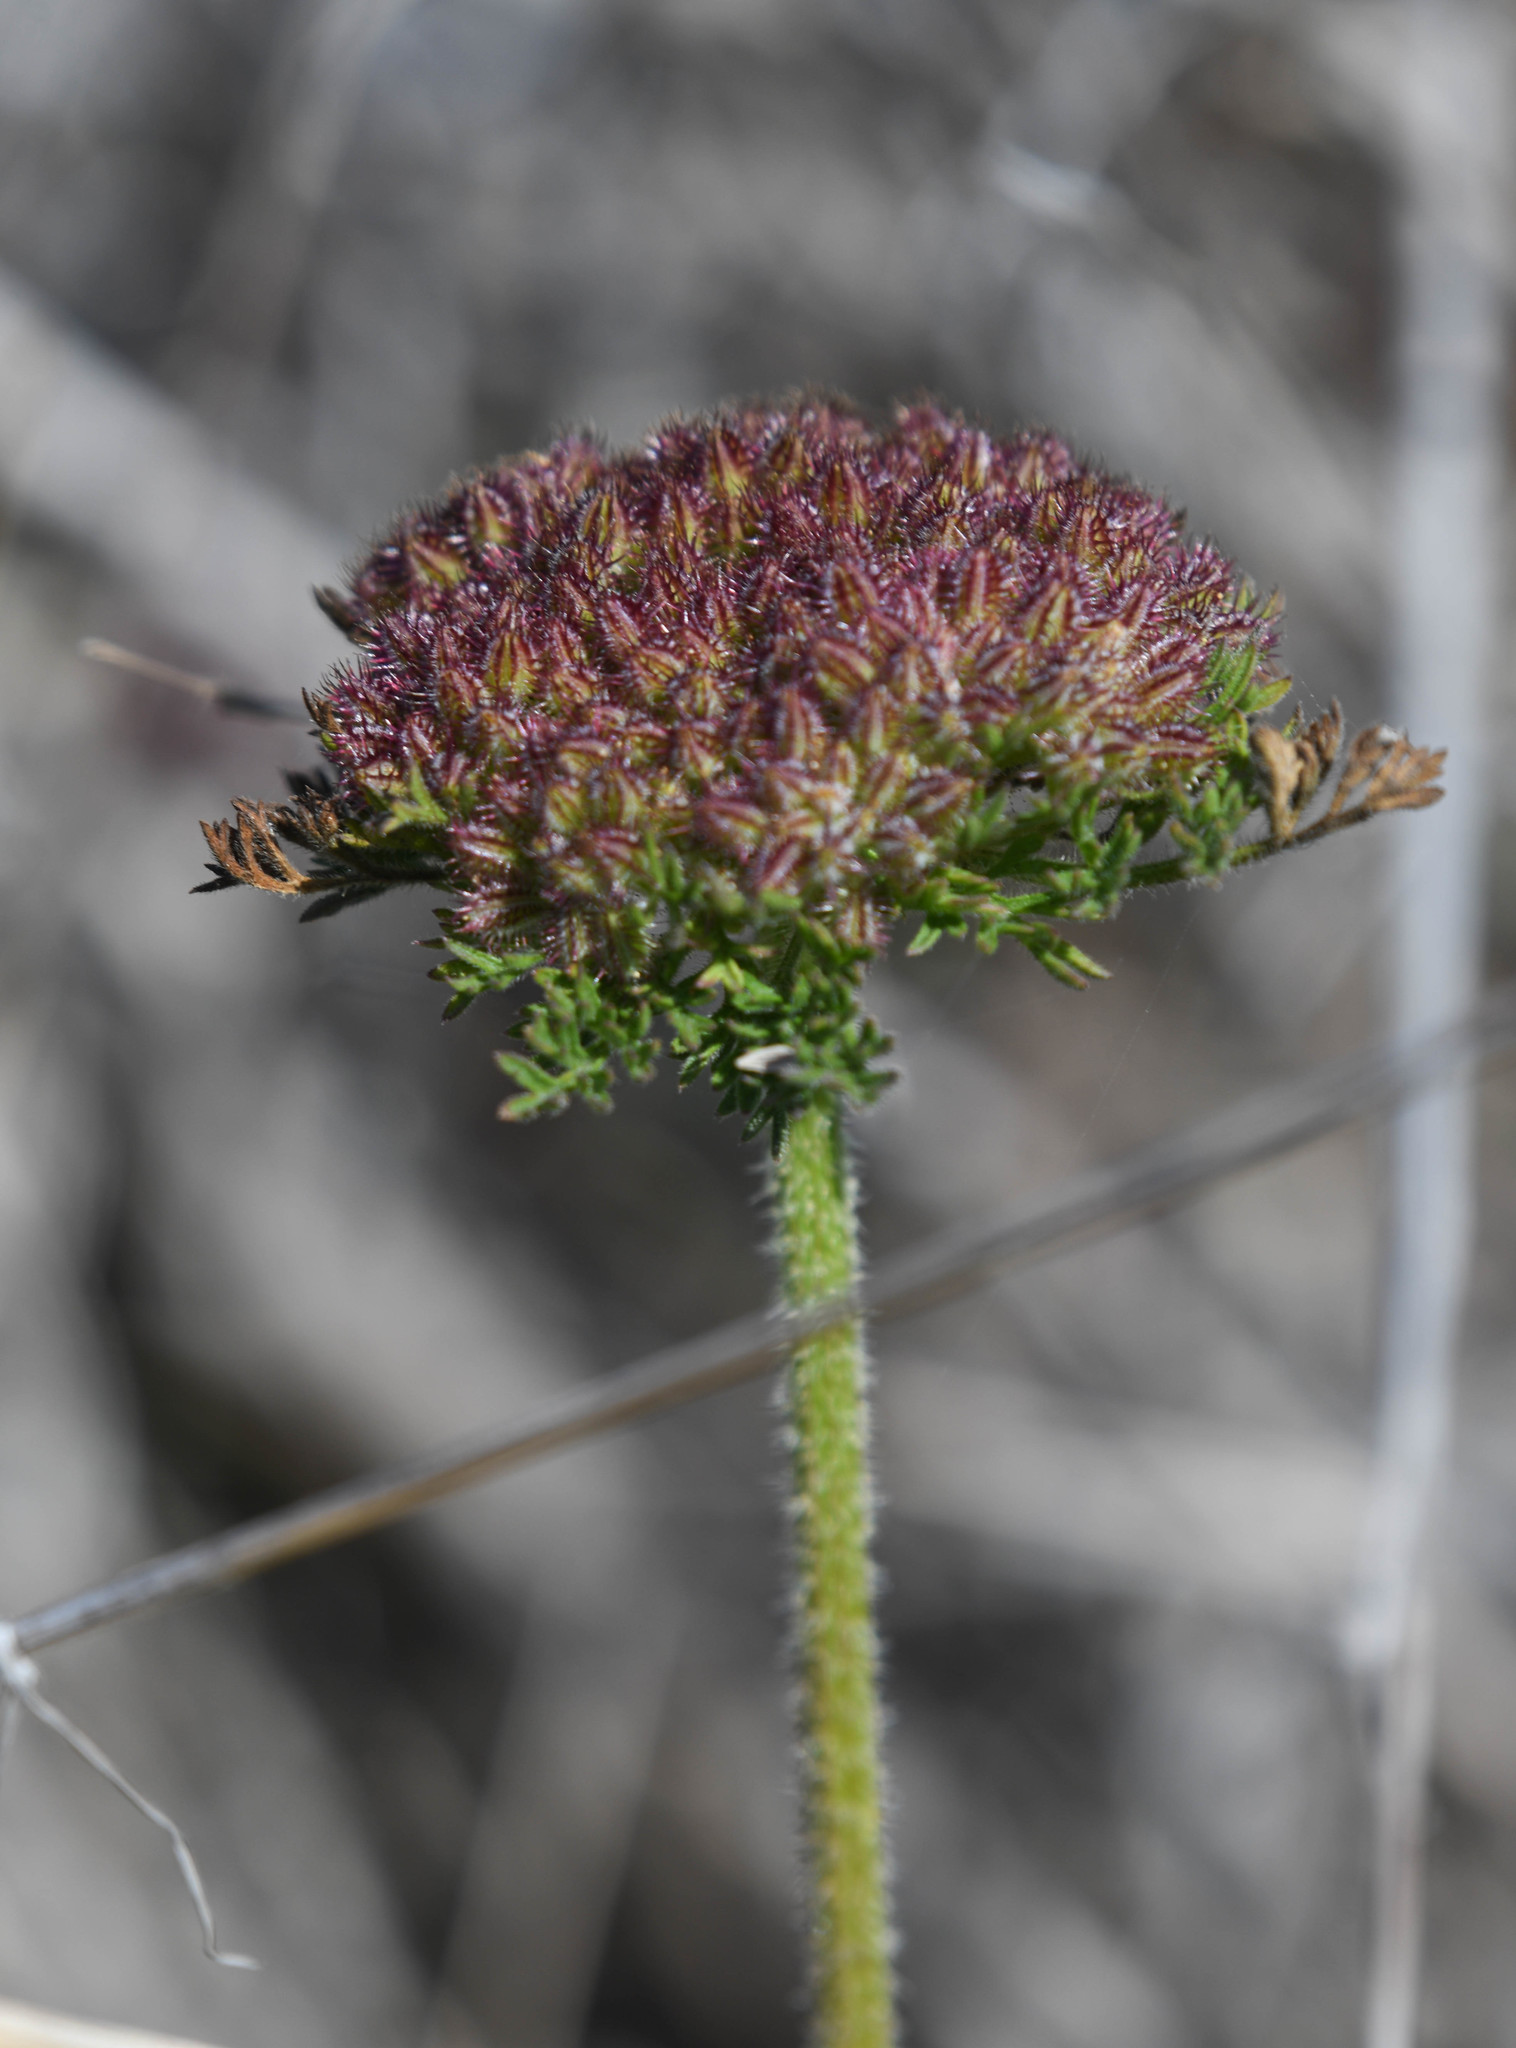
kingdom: Plantae
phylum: Tracheophyta
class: Magnoliopsida
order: Apiales
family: Apiaceae
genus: Daucus
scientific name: Daucus pusillus
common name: Southwest wild carrot
